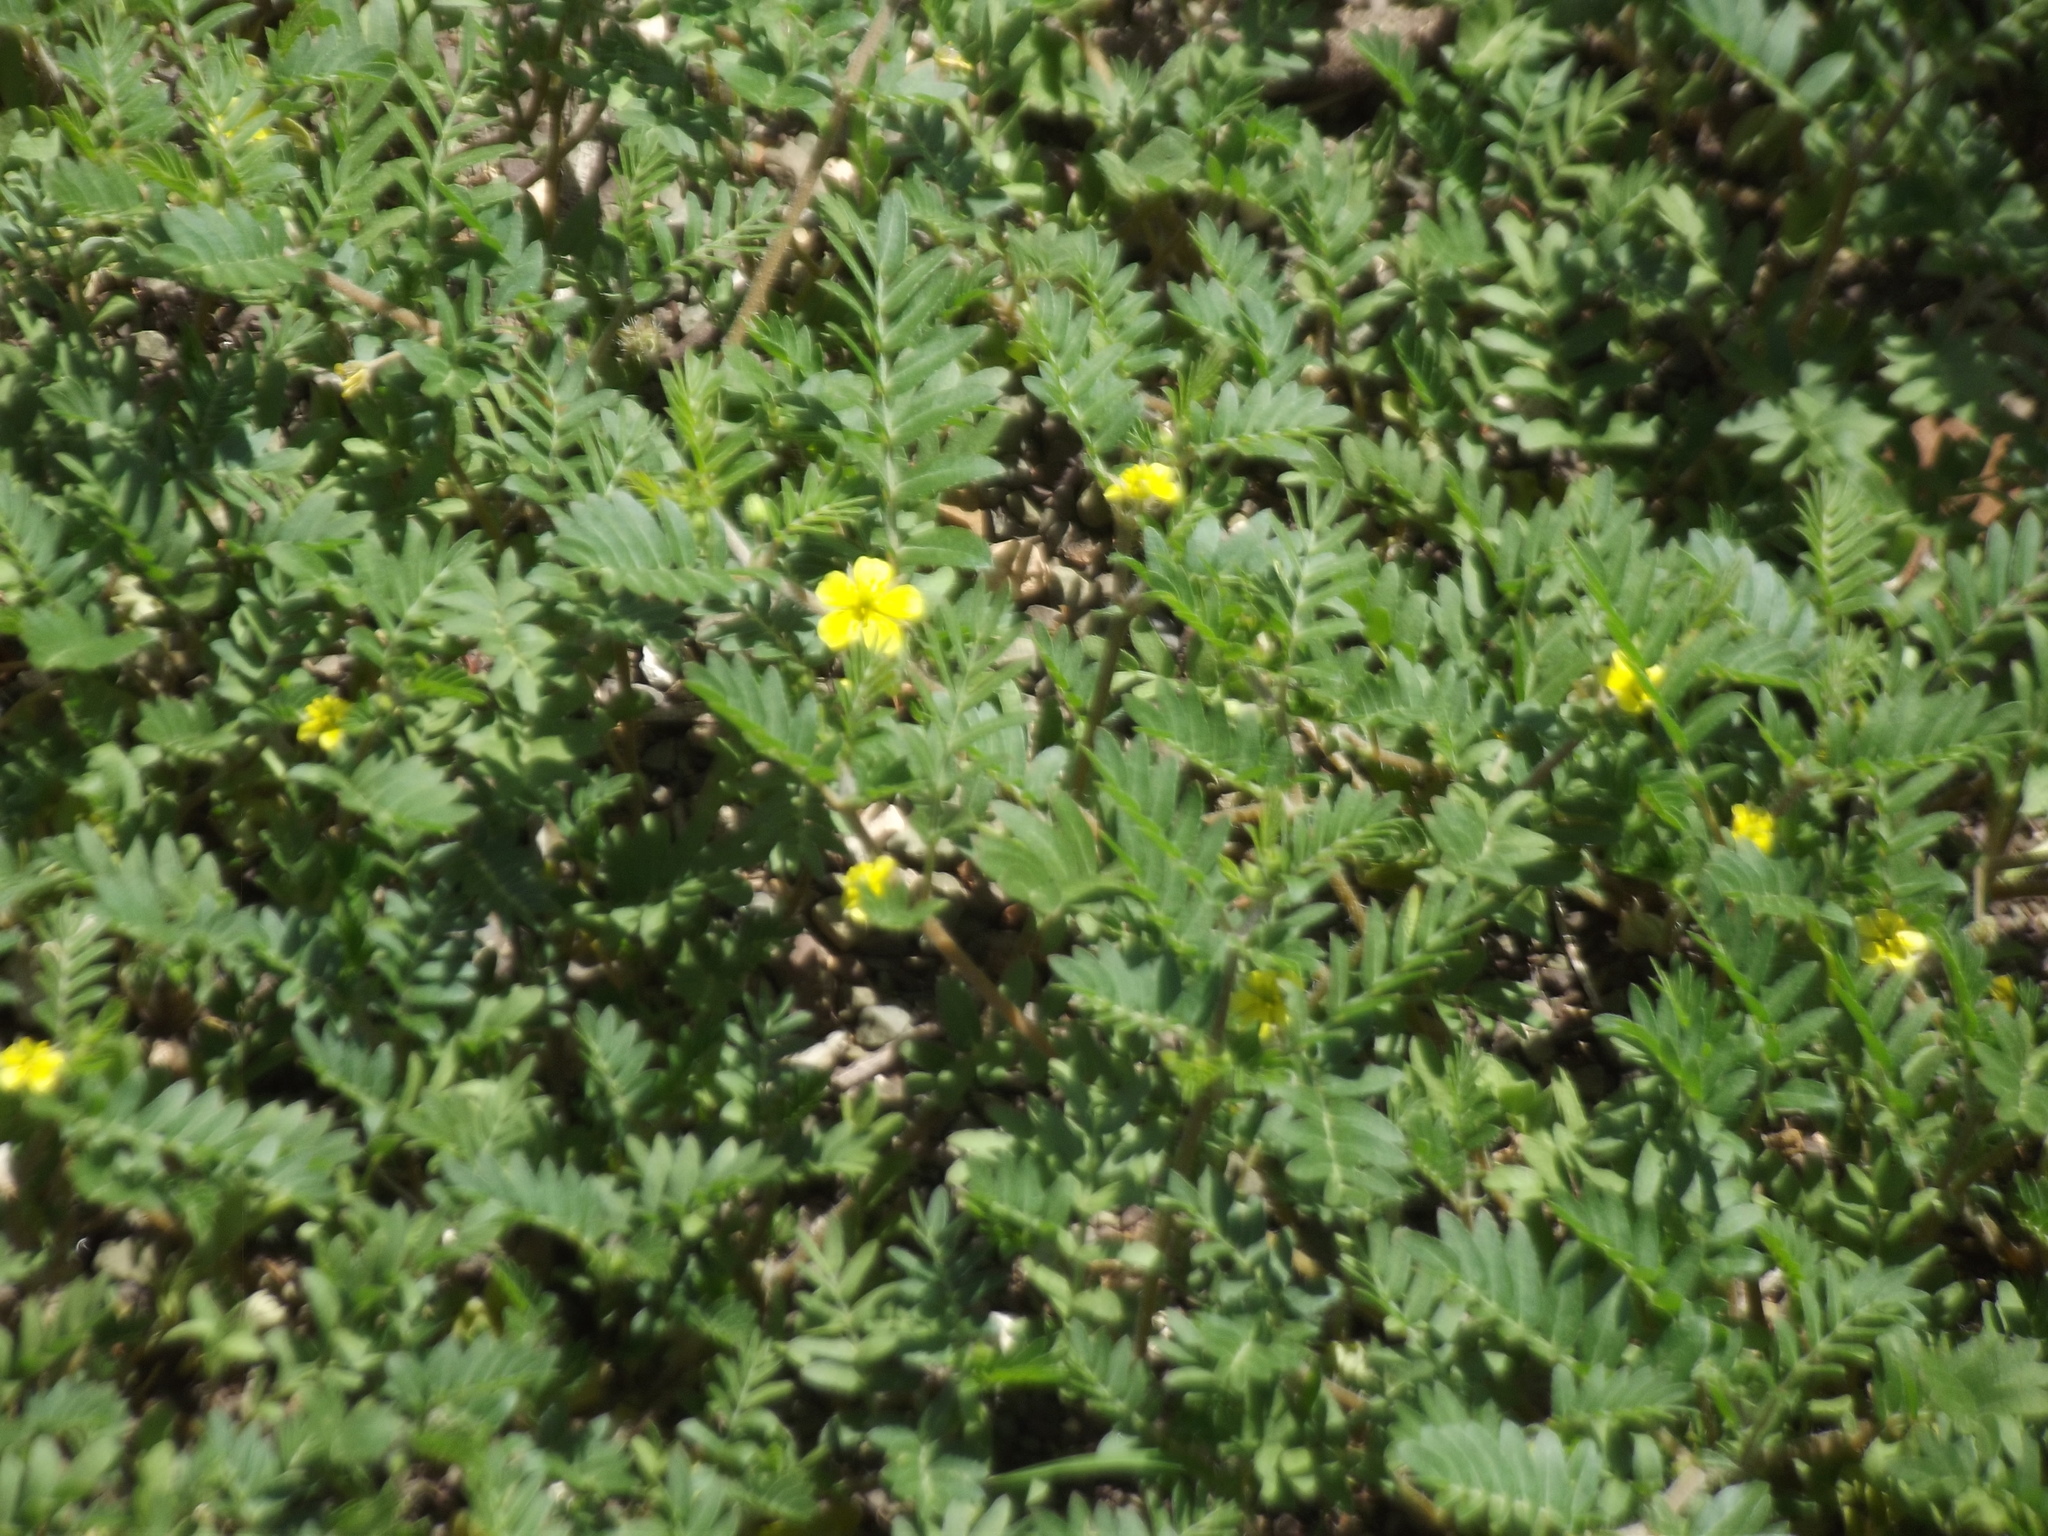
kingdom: Plantae
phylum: Tracheophyta
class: Magnoliopsida
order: Zygophyllales
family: Zygophyllaceae
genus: Tribulus
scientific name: Tribulus terrestris
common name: Puncturevine
